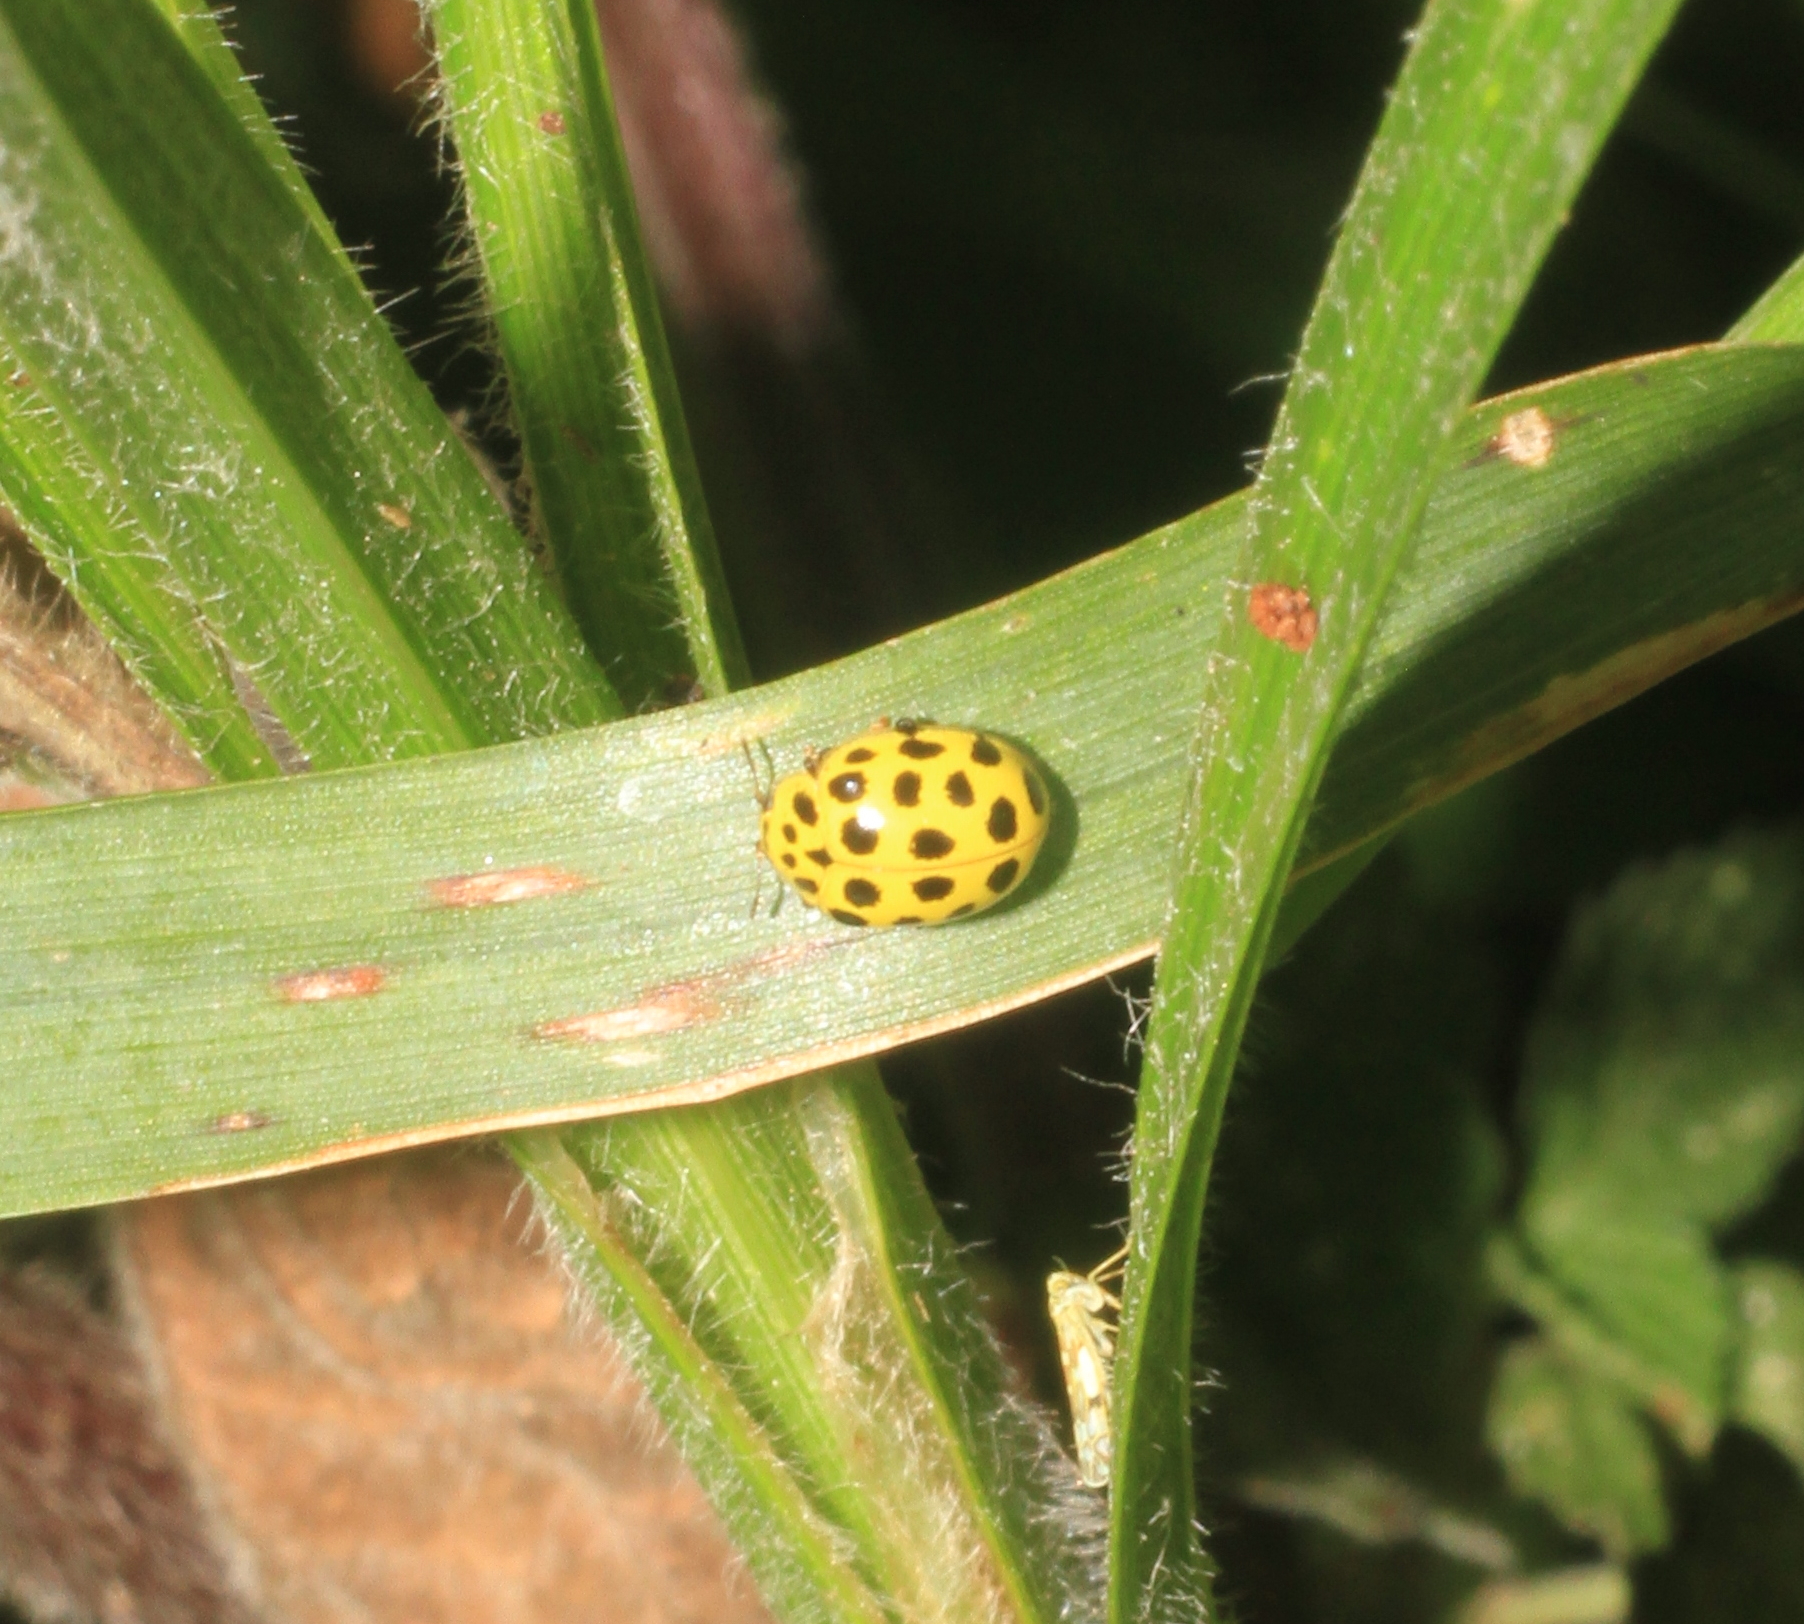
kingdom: Animalia
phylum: Arthropoda
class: Insecta
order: Coleoptera
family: Coccinellidae
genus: Psyllobora
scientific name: Psyllobora vigintiduopunctata
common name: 22-spot ladybird
